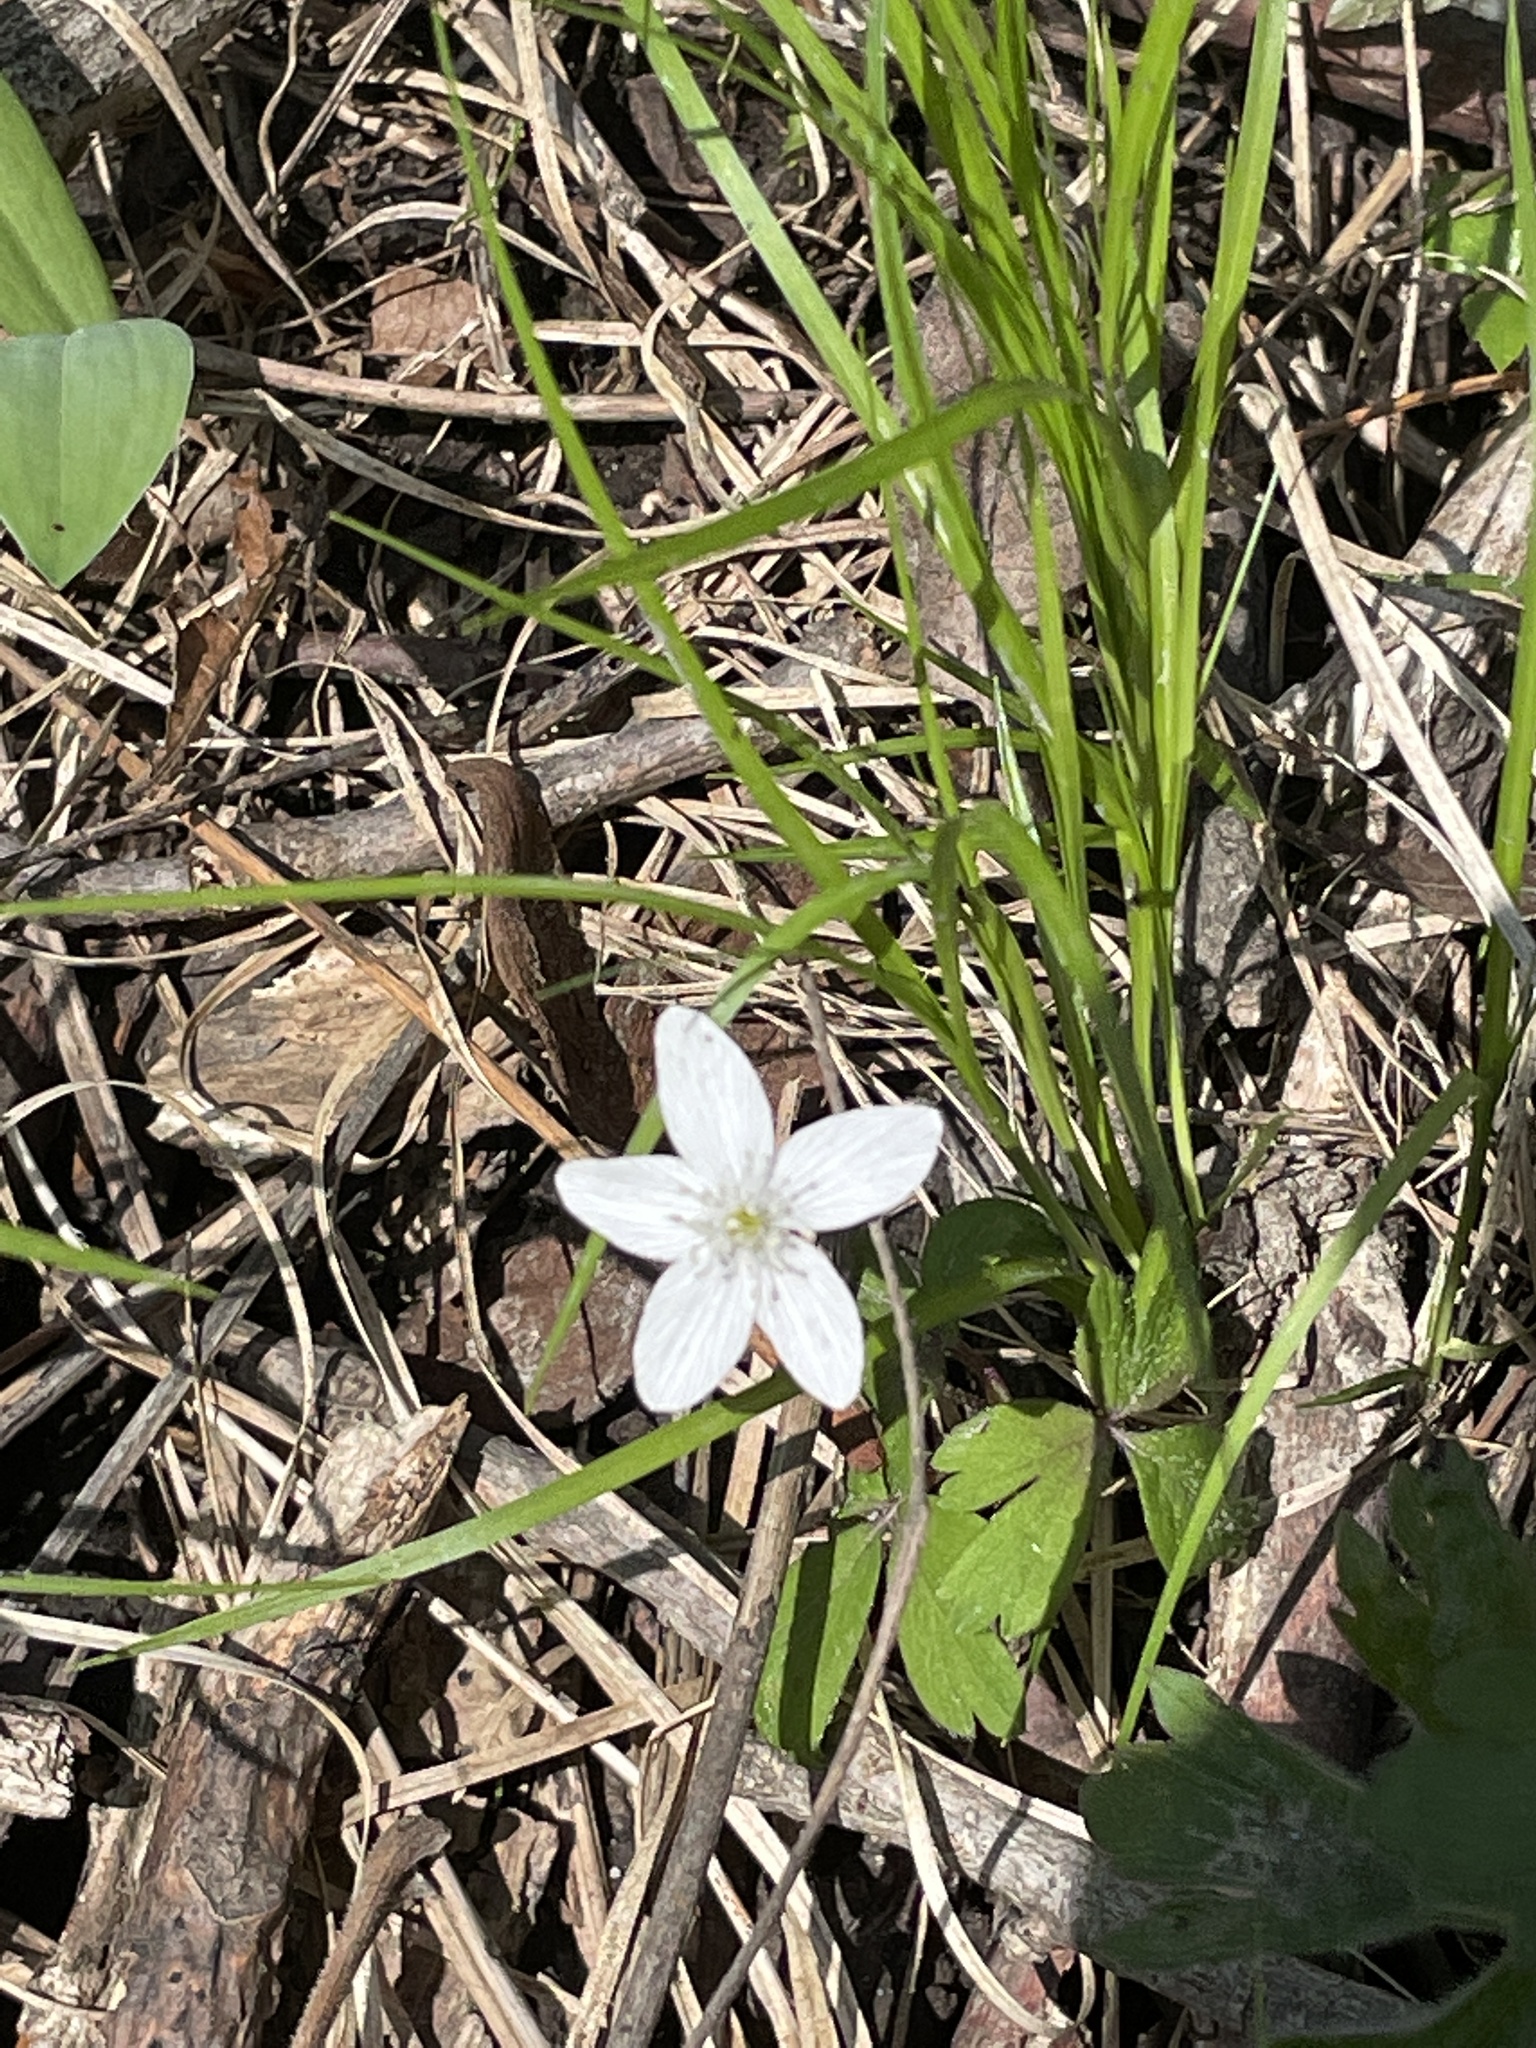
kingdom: Plantae
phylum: Tracheophyta
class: Magnoliopsida
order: Ranunculales
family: Ranunculaceae
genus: Anemone
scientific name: Anemone quinquefolia
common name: Wood anemone
